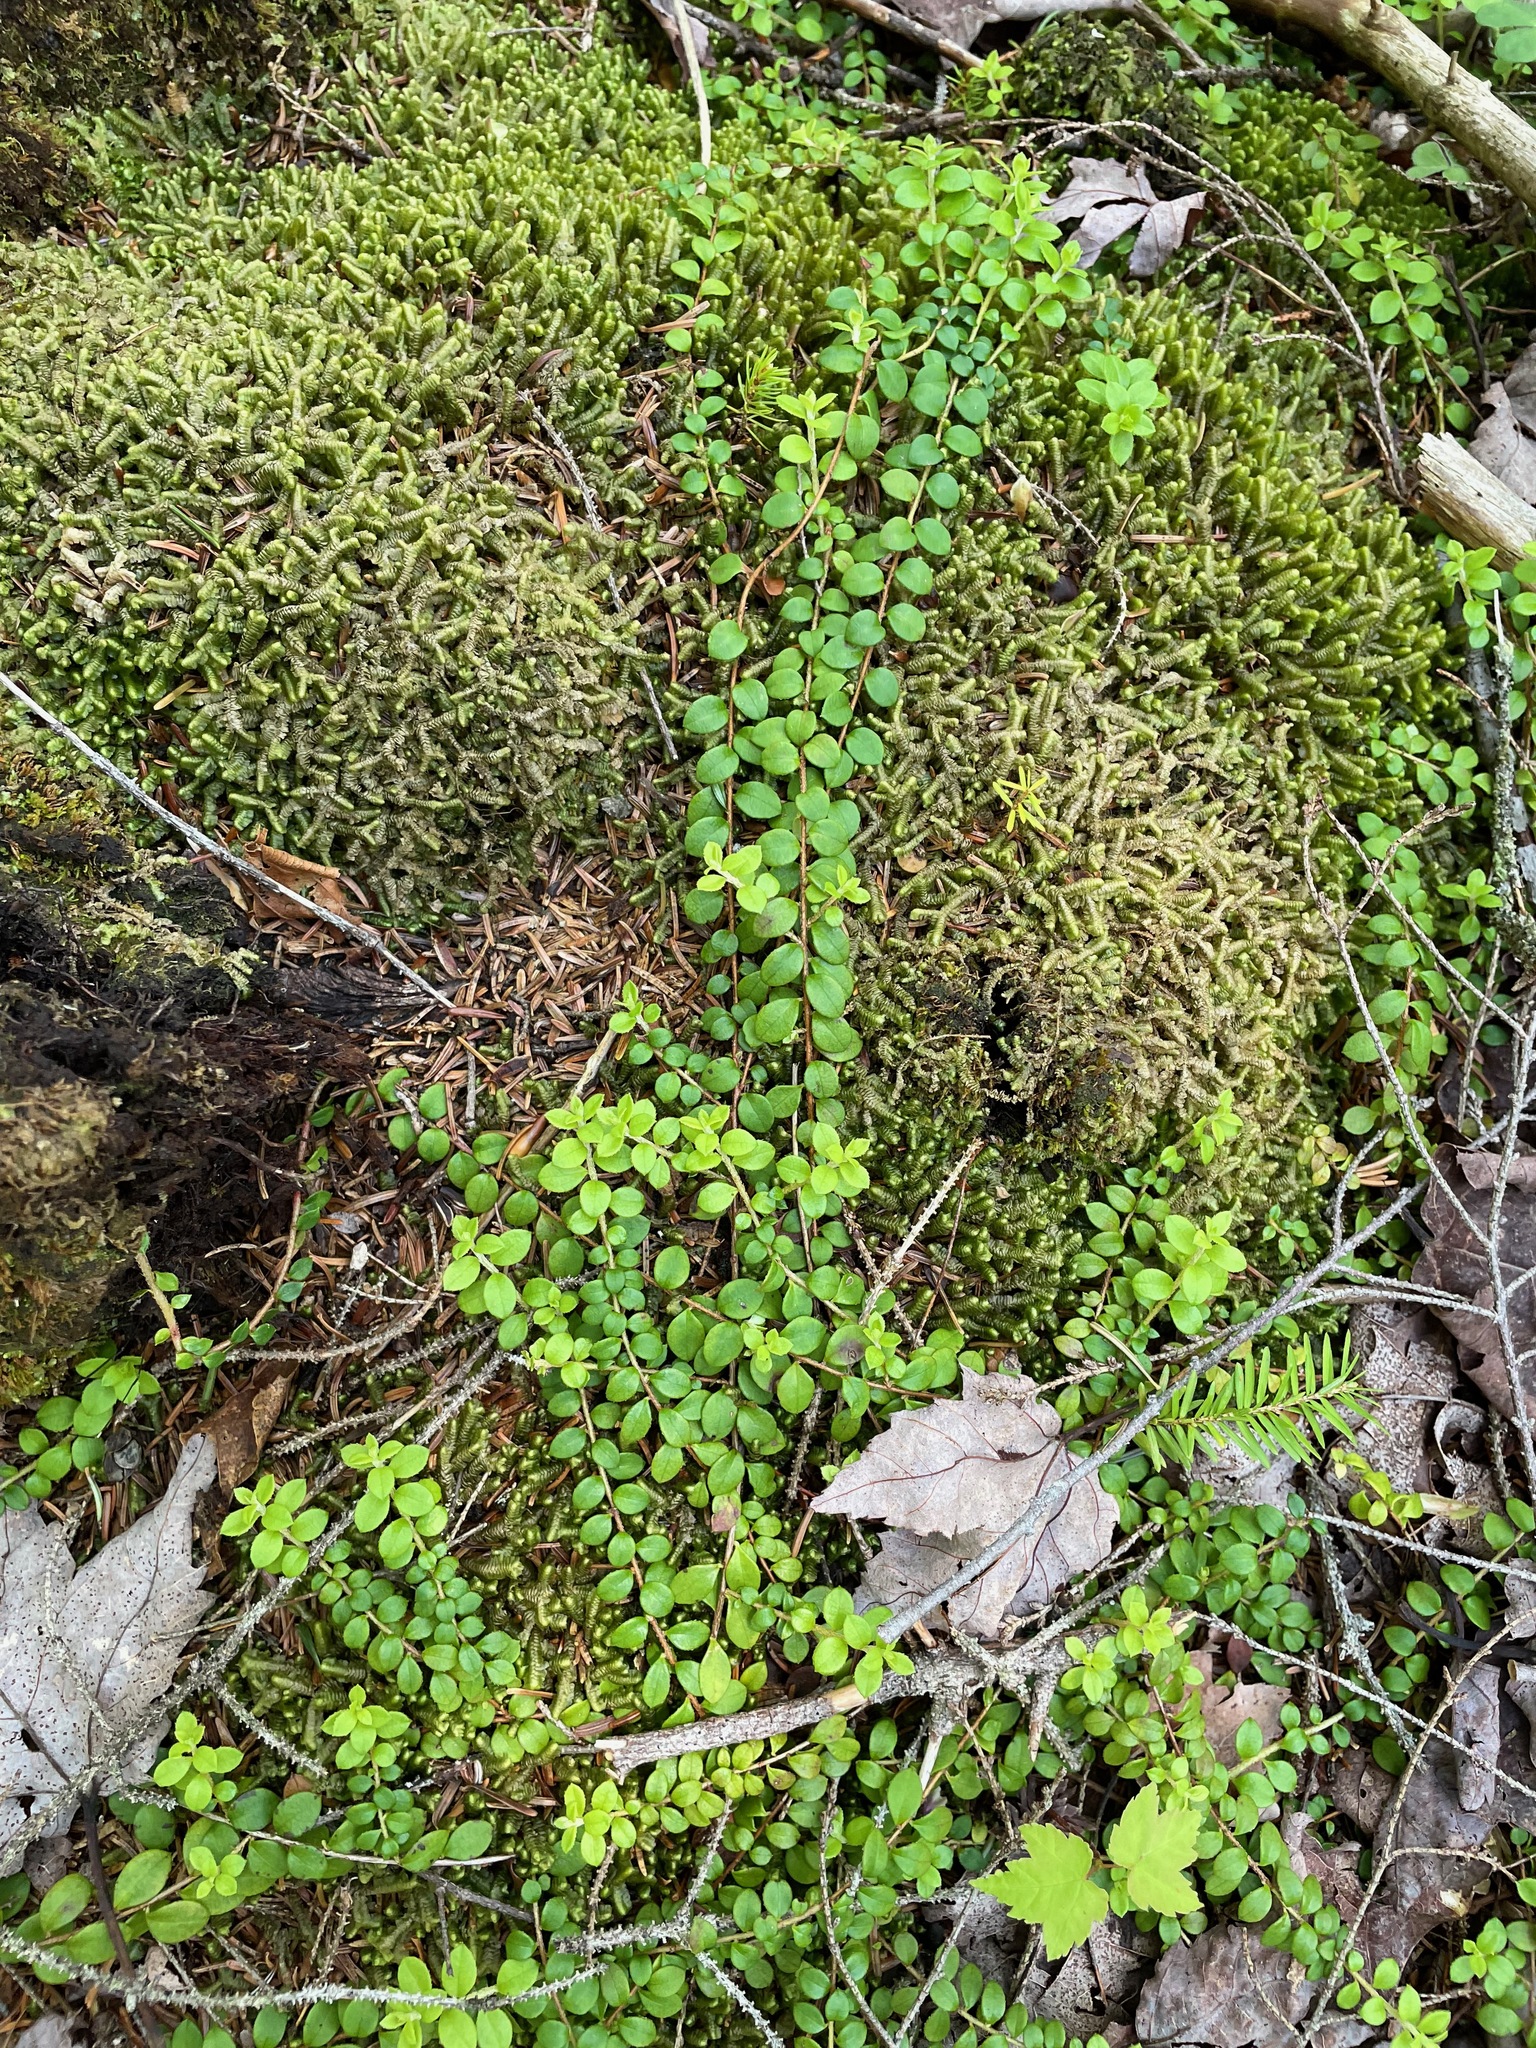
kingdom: Plantae
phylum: Tracheophyta
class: Magnoliopsida
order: Ericales
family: Ericaceae
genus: Gaultheria
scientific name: Gaultheria hispidula
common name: Cancer wintergreen
